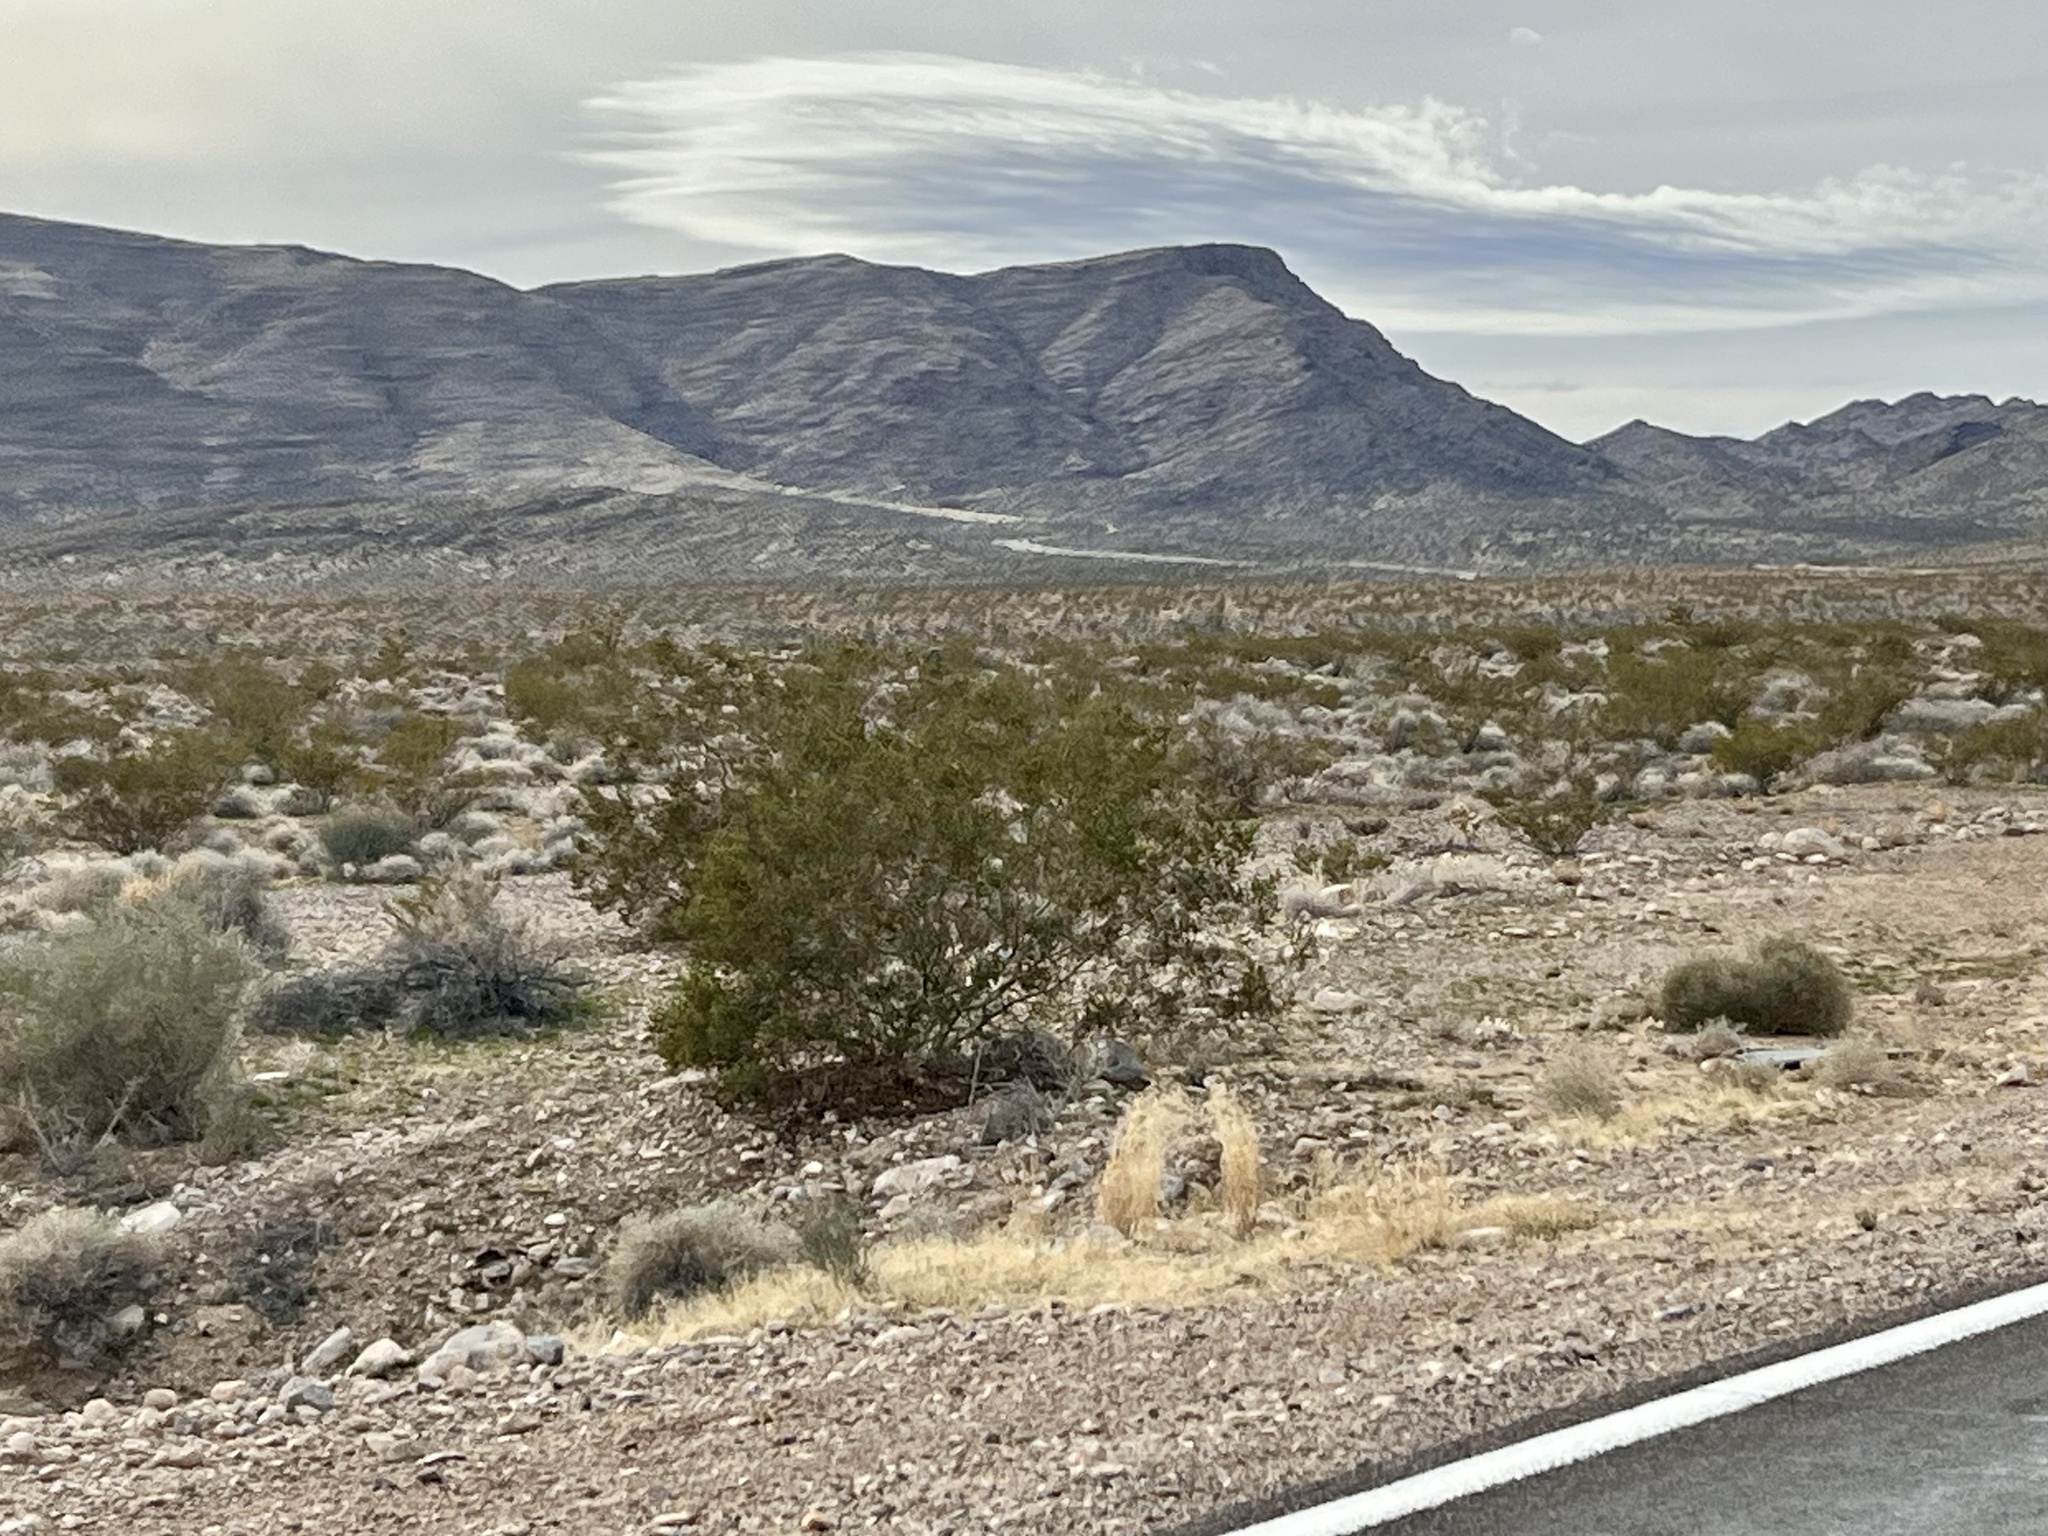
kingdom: Plantae
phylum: Tracheophyta
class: Magnoliopsida
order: Zygophyllales
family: Zygophyllaceae
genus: Larrea
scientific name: Larrea tridentata
